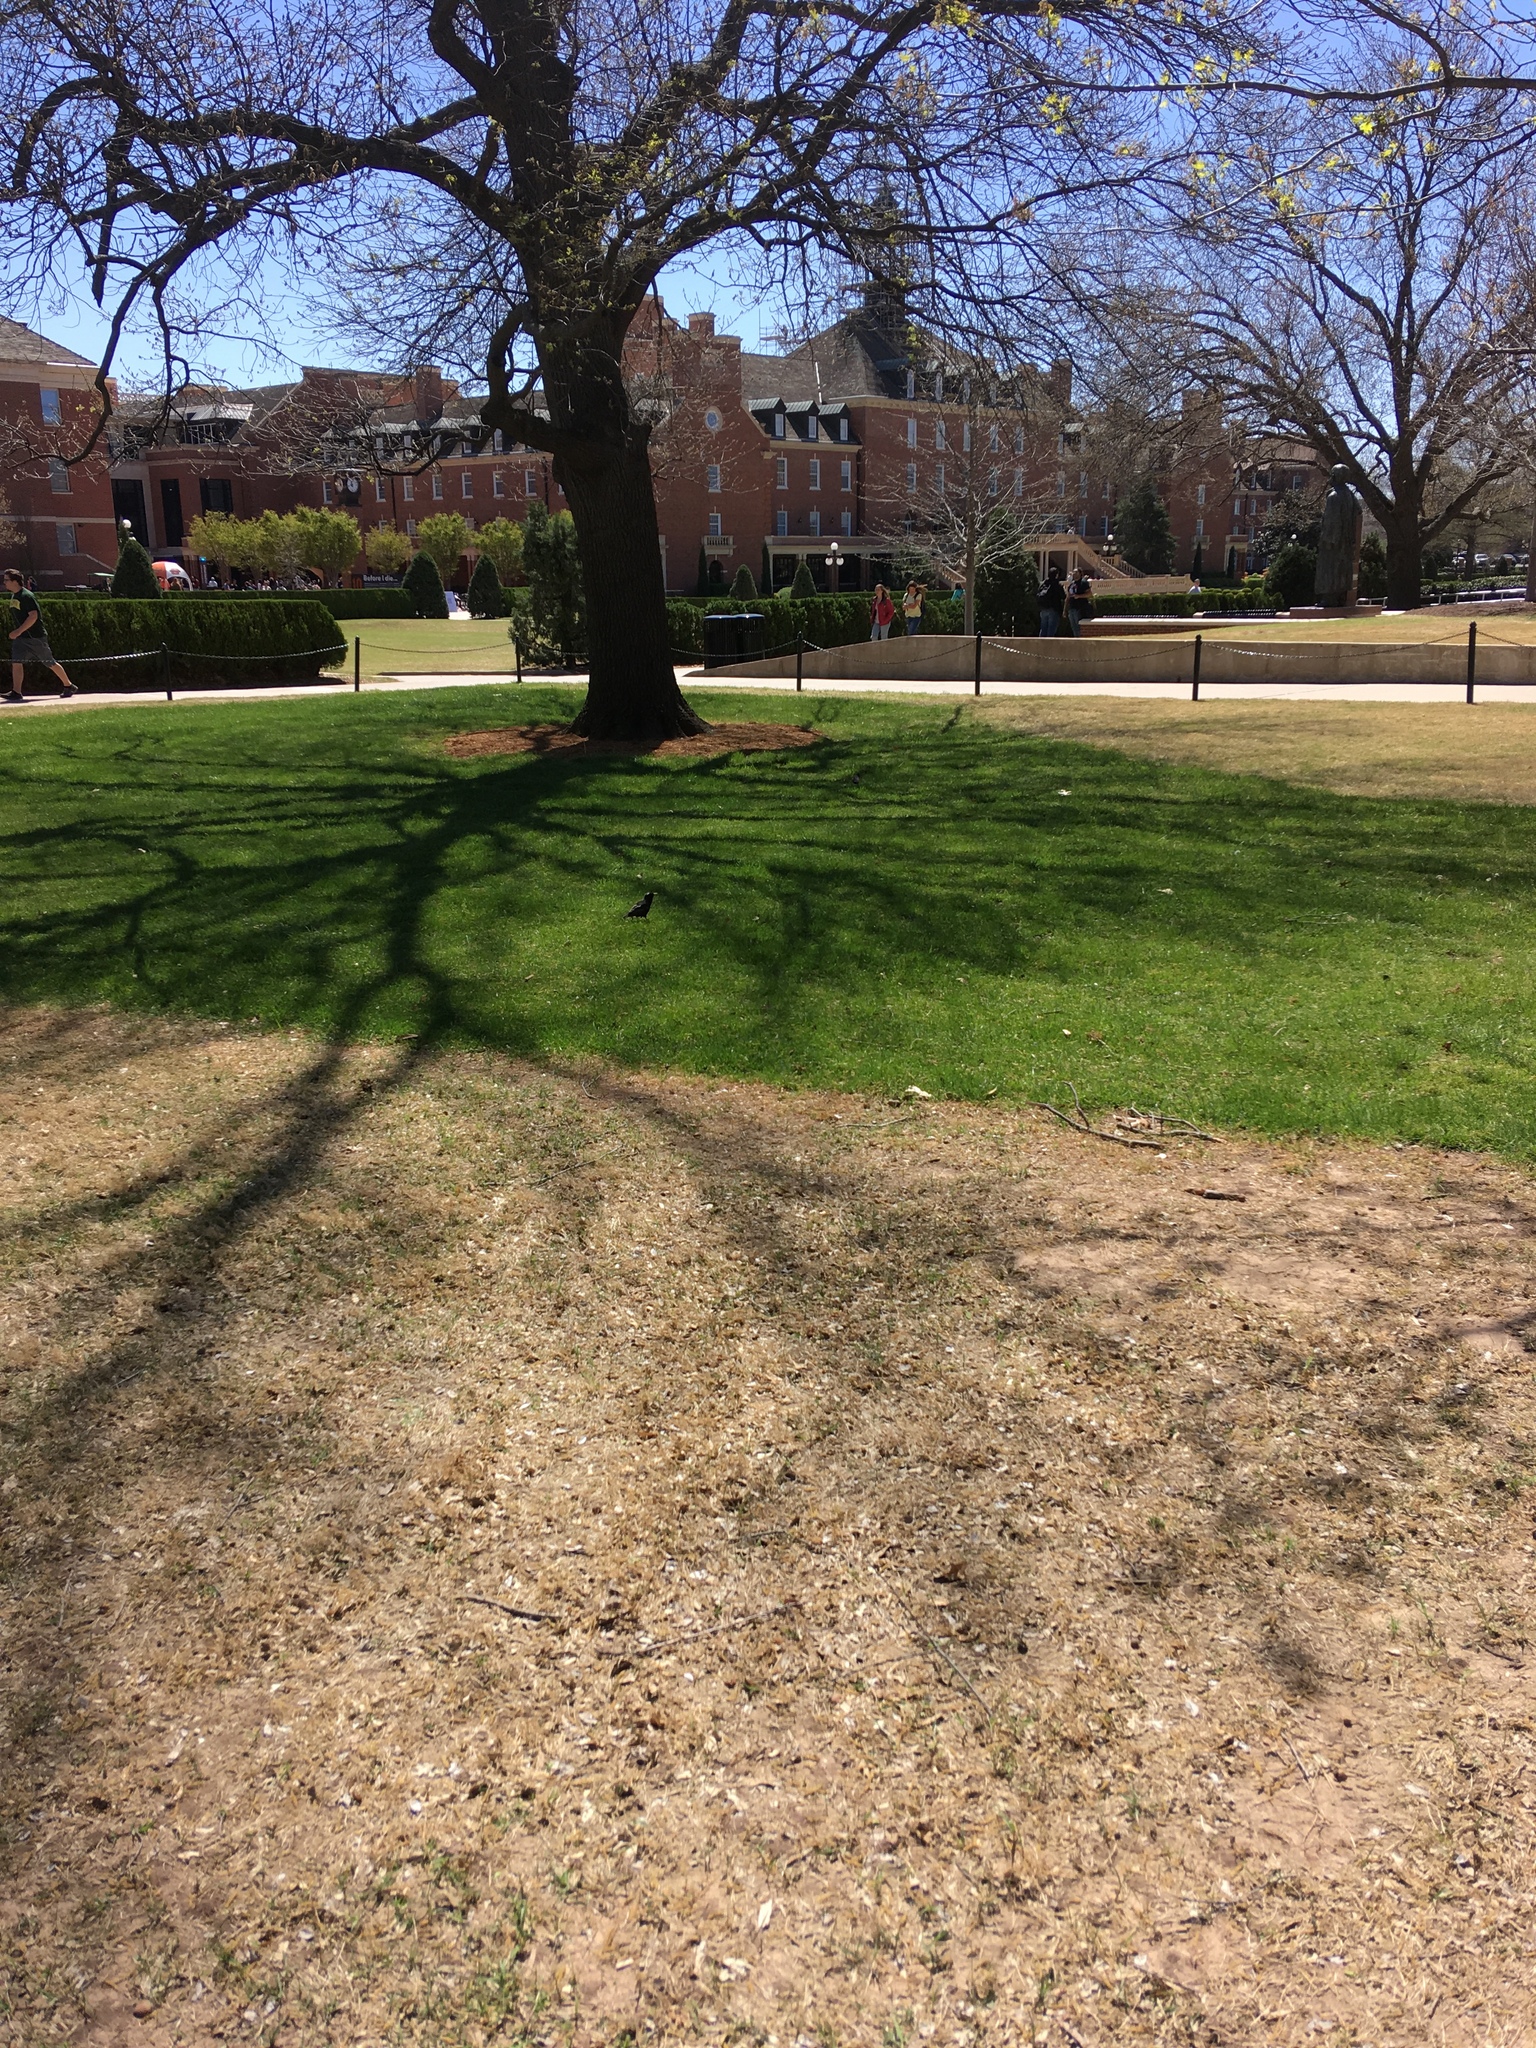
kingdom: Animalia
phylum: Chordata
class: Aves
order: Passeriformes
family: Sturnidae
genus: Sturnus
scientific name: Sturnus vulgaris
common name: Common starling
